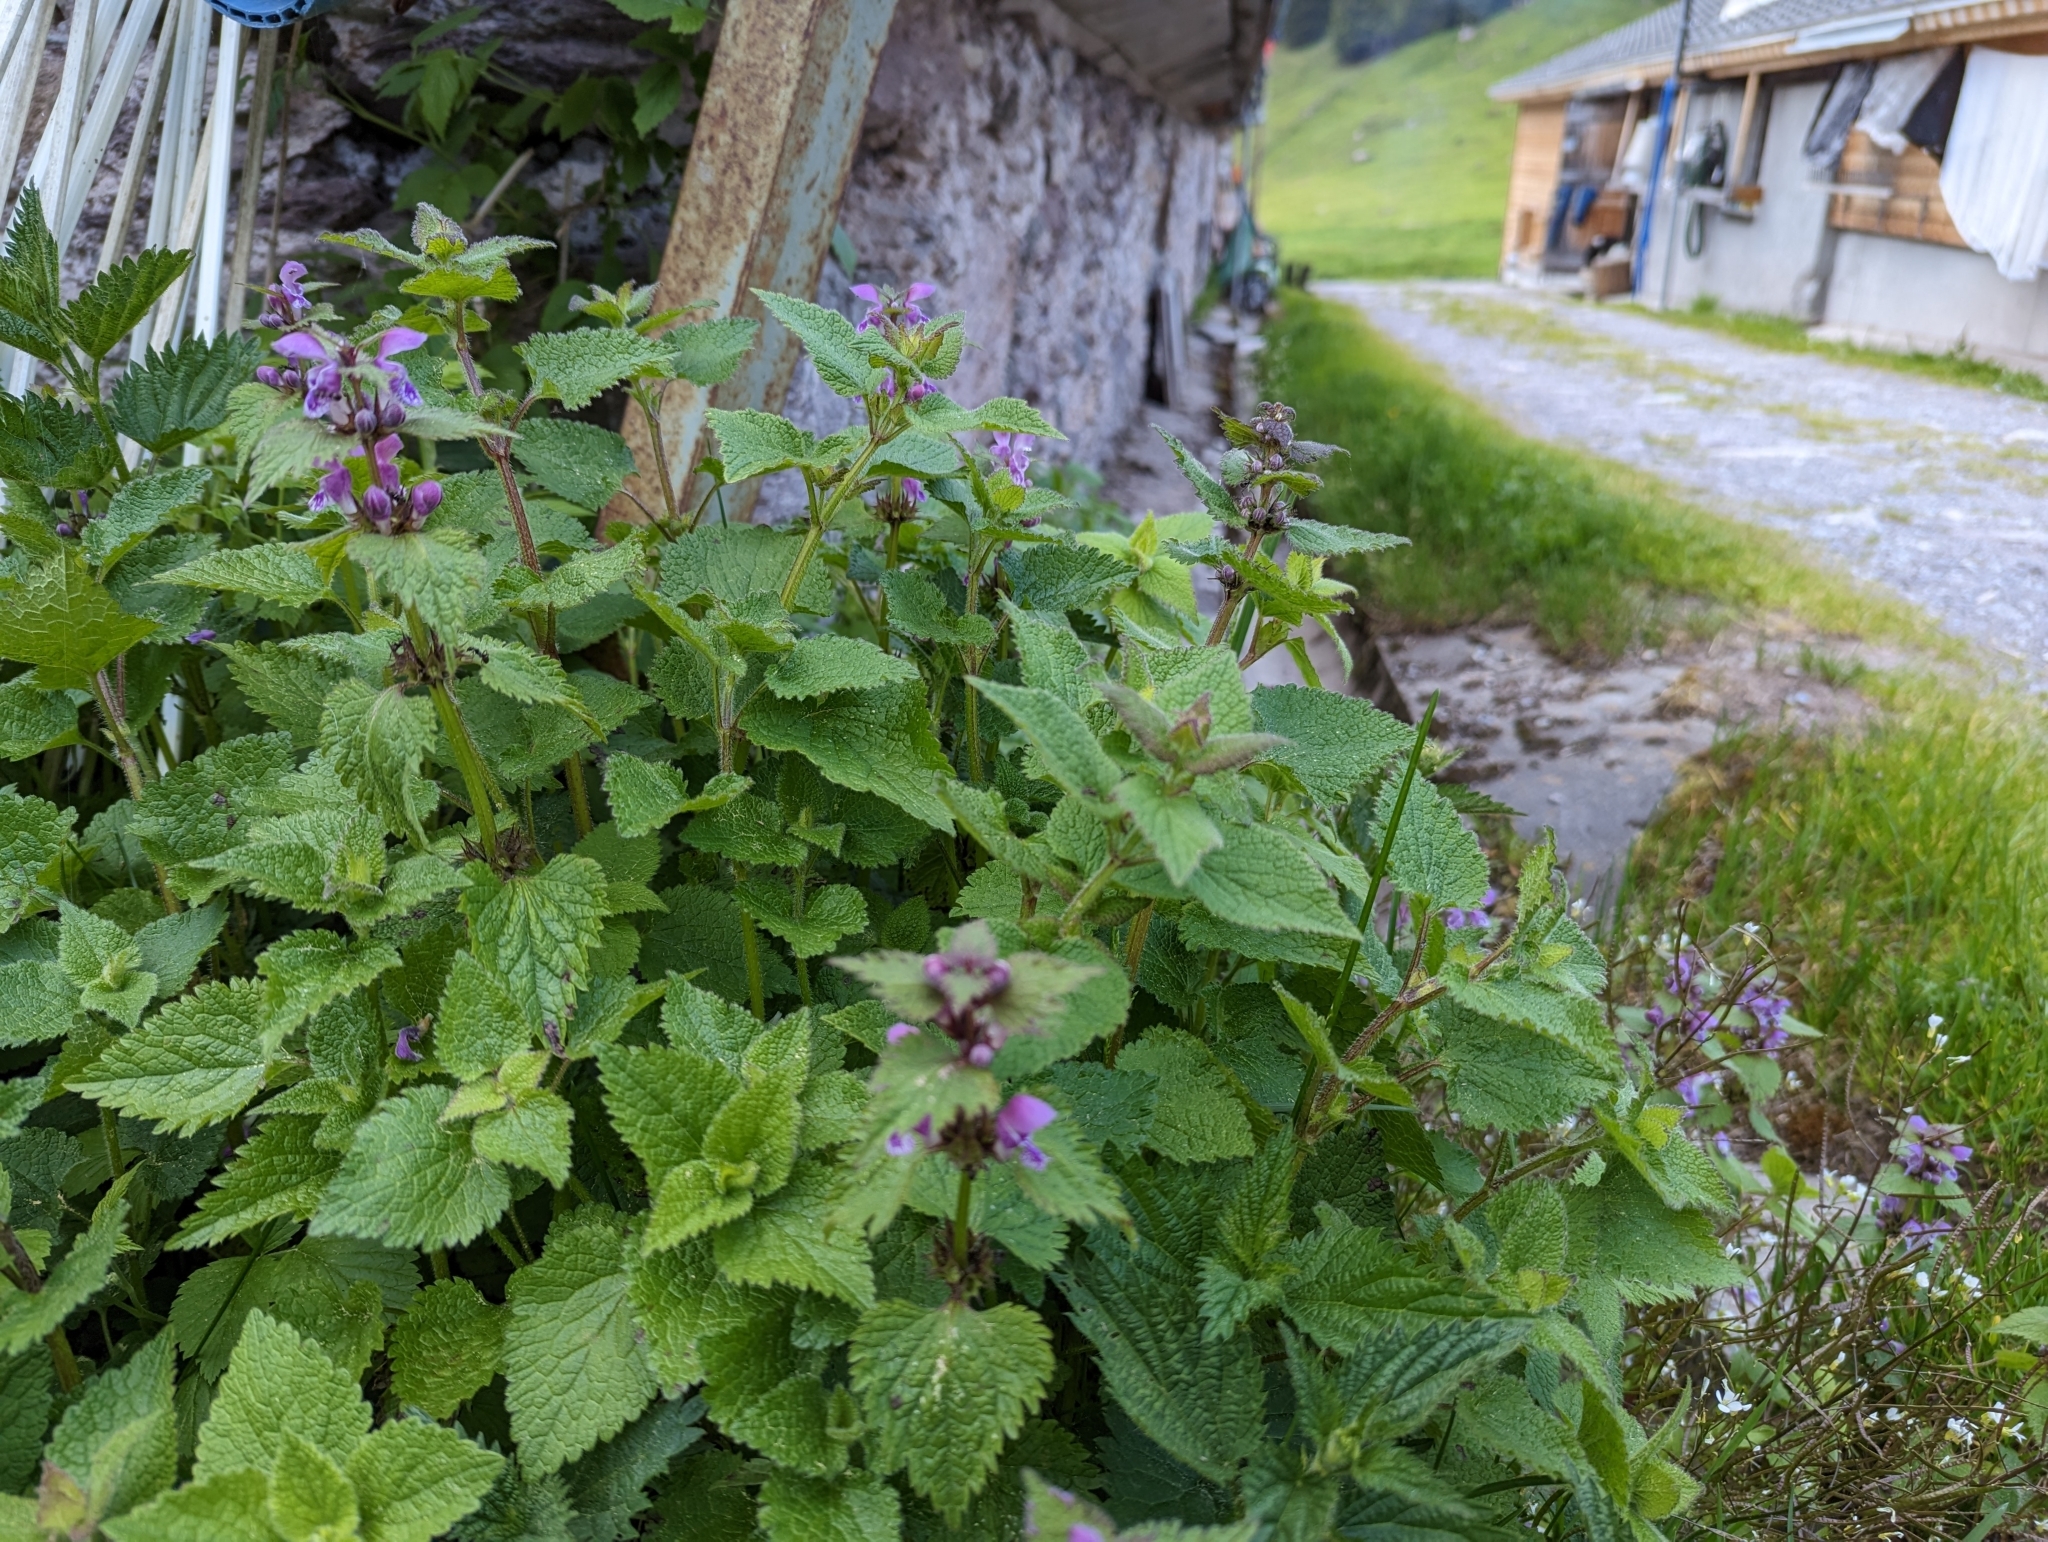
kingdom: Plantae
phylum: Tracheophyta
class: Magnoliopsida
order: Lamiales
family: Lamiaceae
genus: Lamium
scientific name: Lamium maculatum
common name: Spotted dead-nettle
